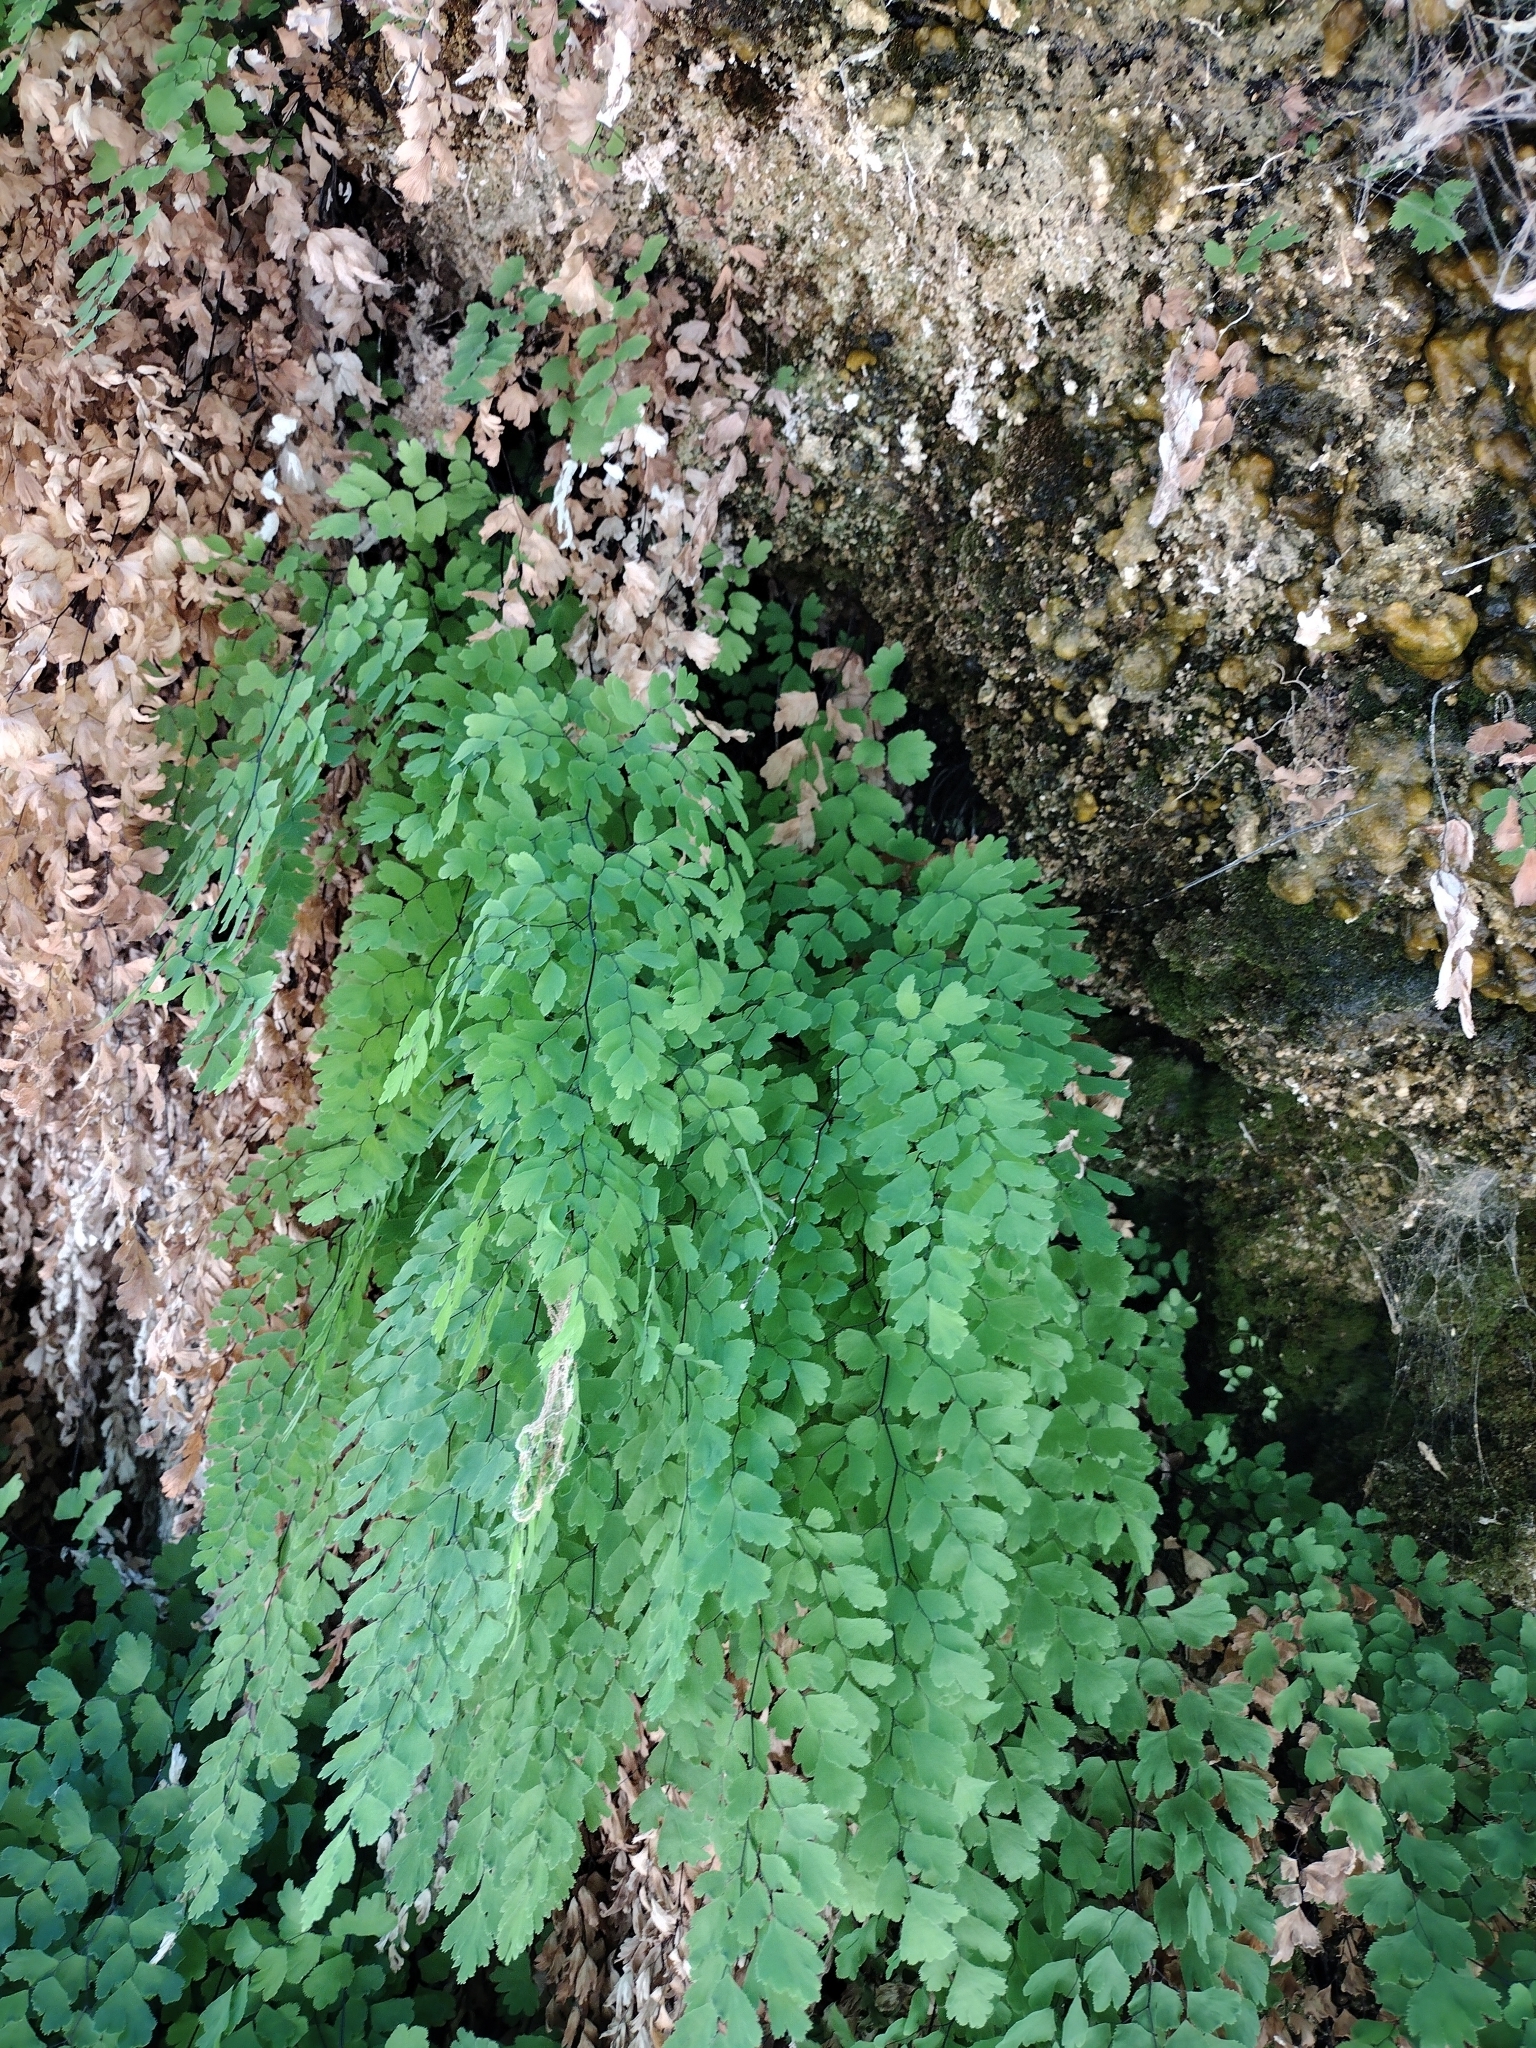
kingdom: Plantae
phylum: Tracheophyta
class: Polypodiopsida
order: Polypodiales
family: Pteridaceae
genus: Adiantum
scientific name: Adiantum capillus-veneris
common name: Maidenhair fern
